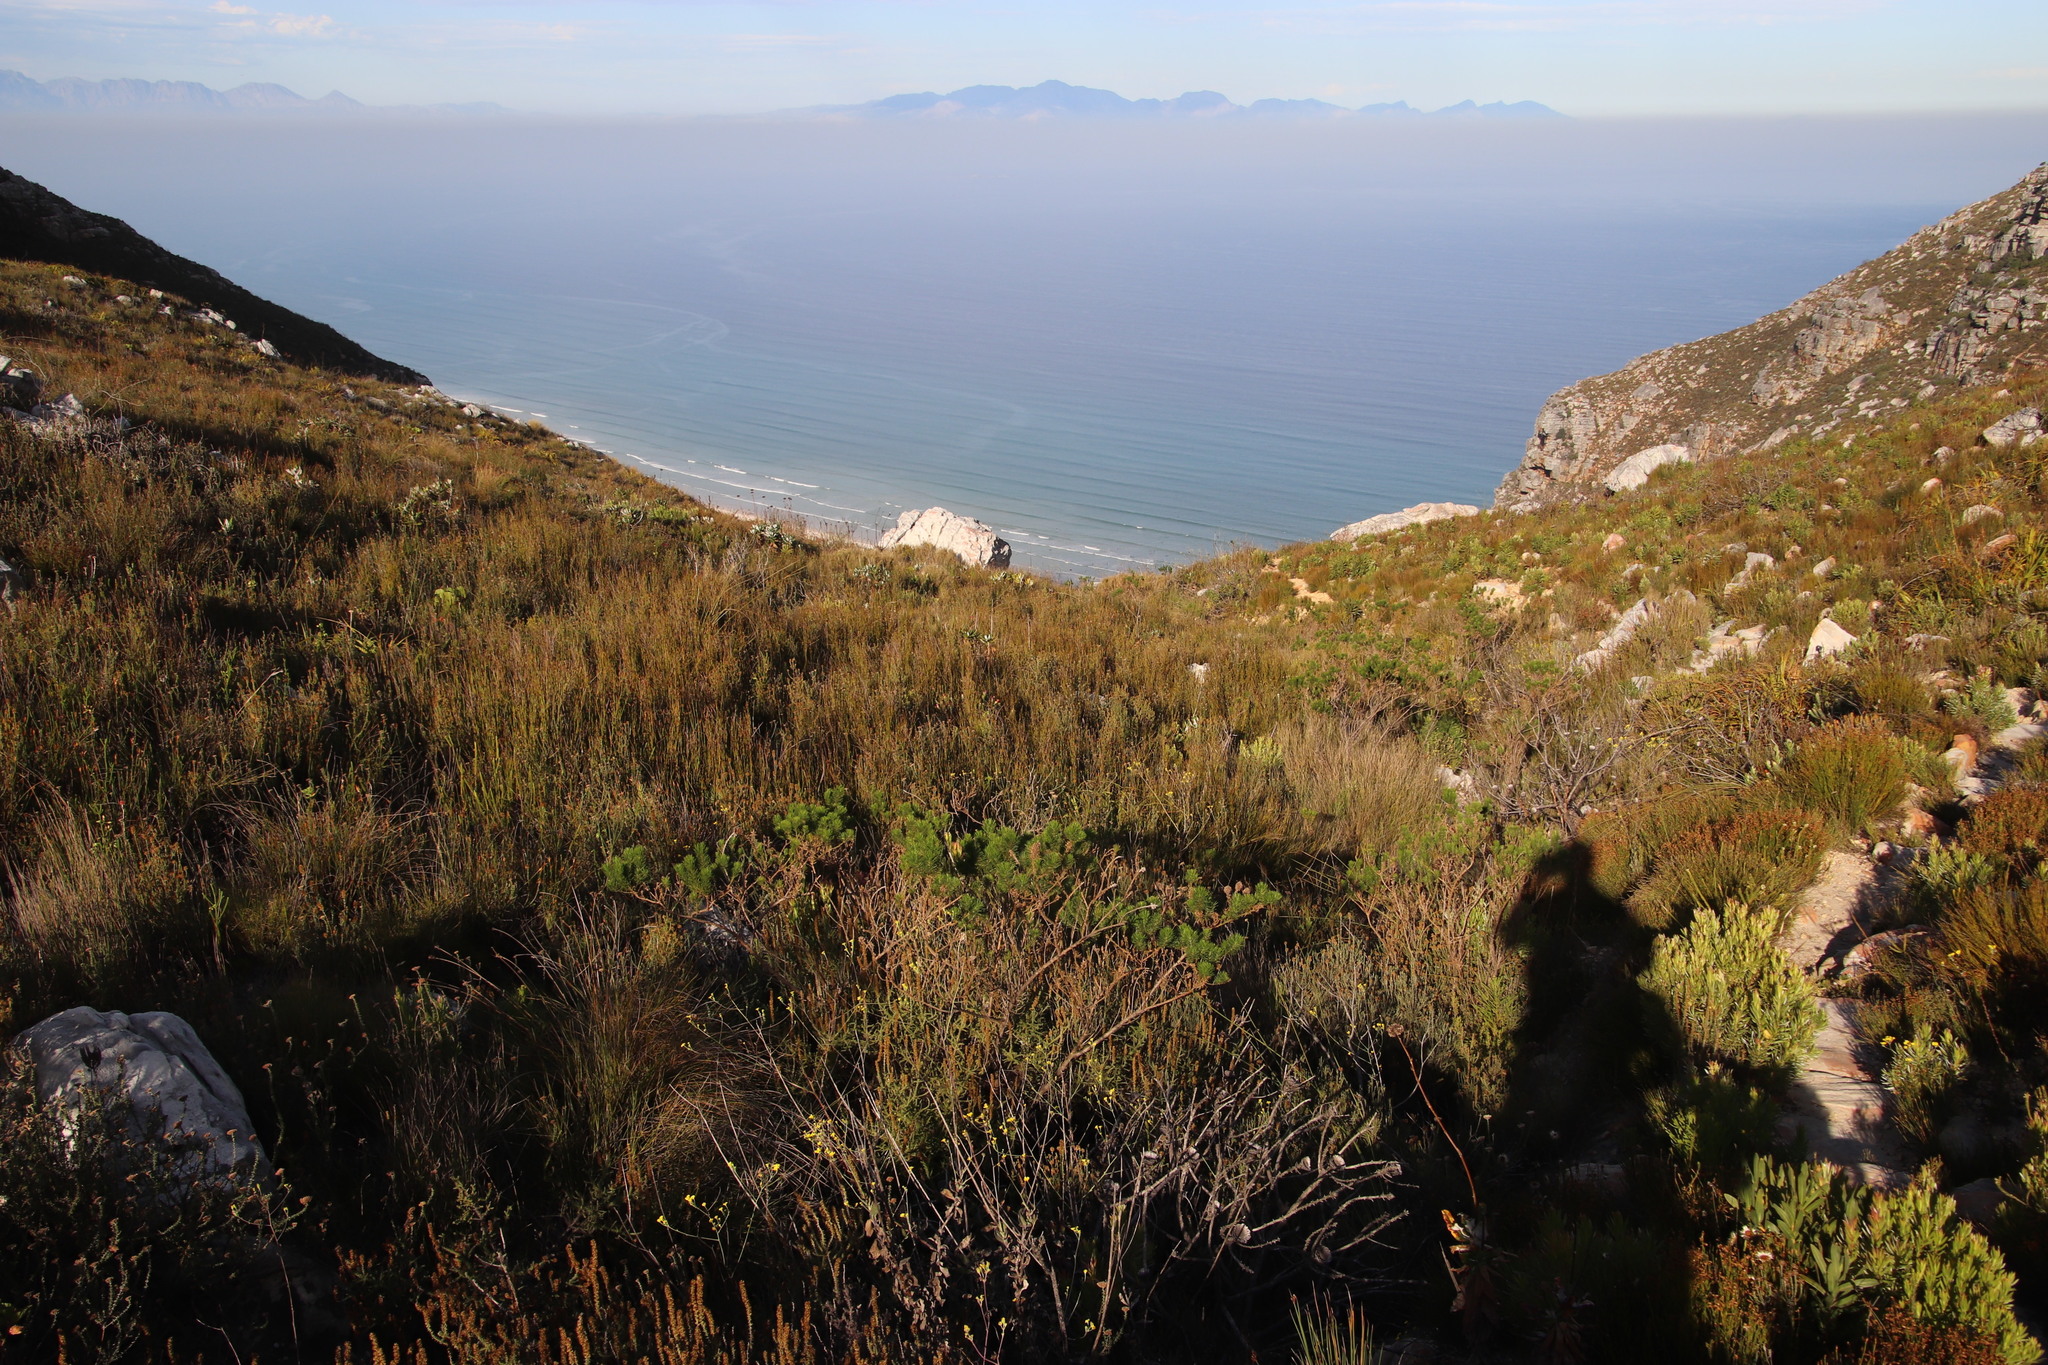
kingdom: Plantae
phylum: Tracheophyta
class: Magnoliopsida
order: Fabales
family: Fabaceae
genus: Psoralea
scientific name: Psoralea pinnata
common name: African scurfpea
